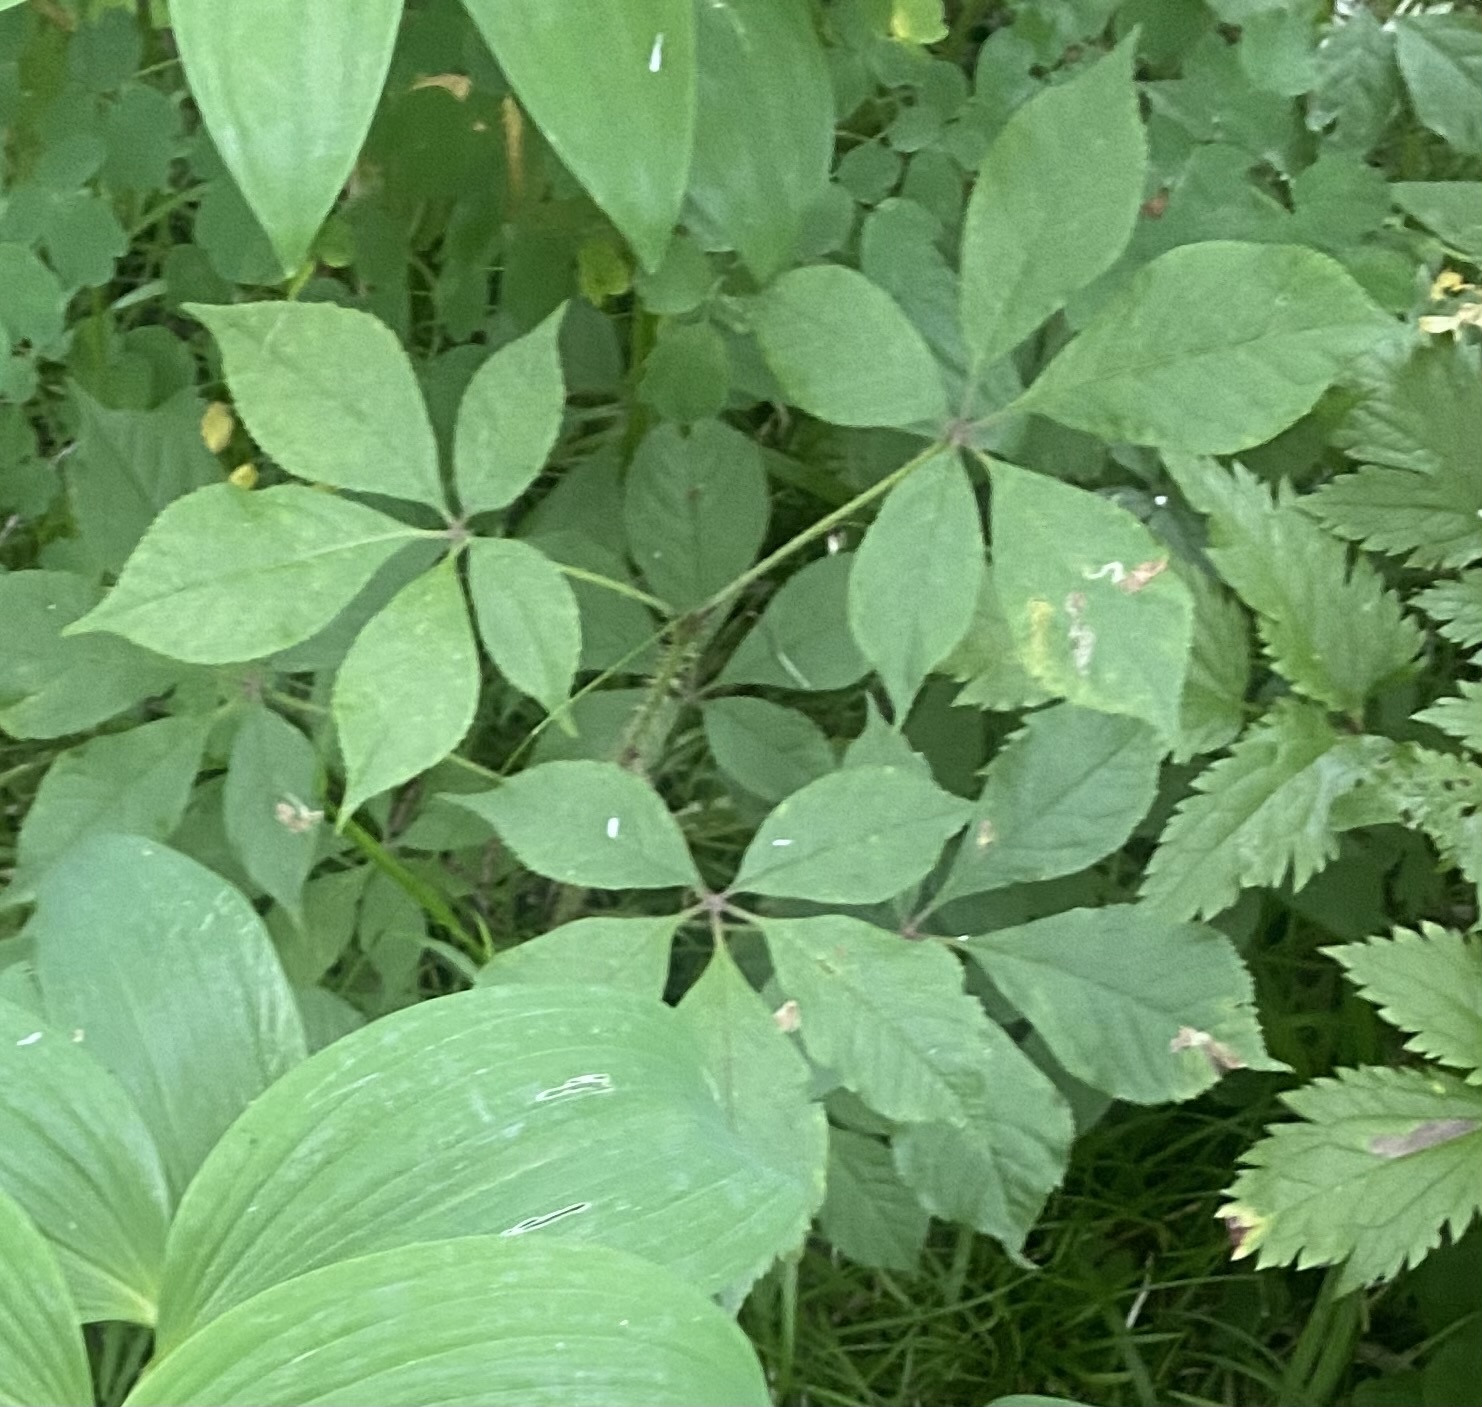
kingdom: Plantae
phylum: Tracheophyta
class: Magnoliopsida
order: Apiales
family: Araliaceae
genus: Eleutherococcus
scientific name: Eleutherococcus senticosus
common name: Siberian-ginseng
